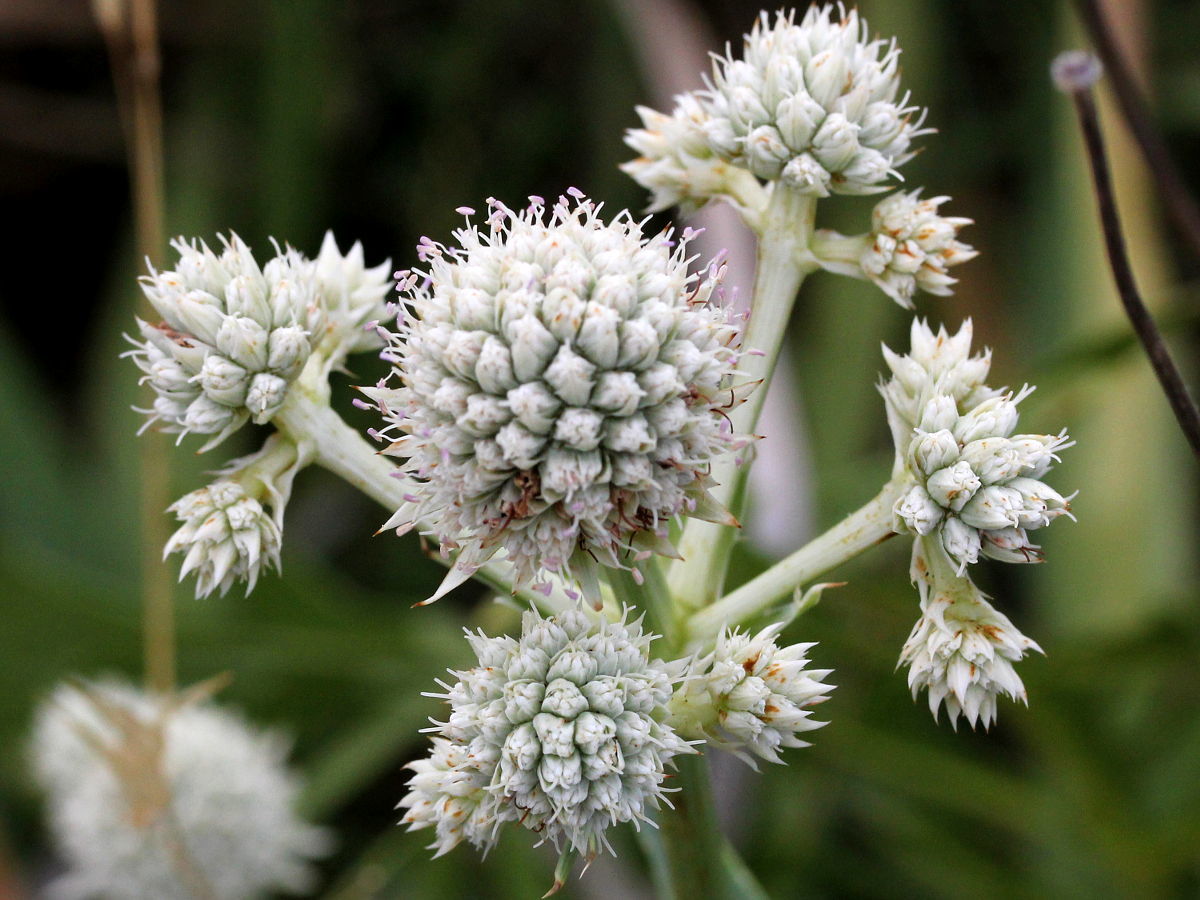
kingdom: Plantae
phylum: Tracheophyta
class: Magnoliopsida
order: Apiales
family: Apiaceae
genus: Eryngium
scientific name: Eryngium yuccifolium
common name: Button eryngo
